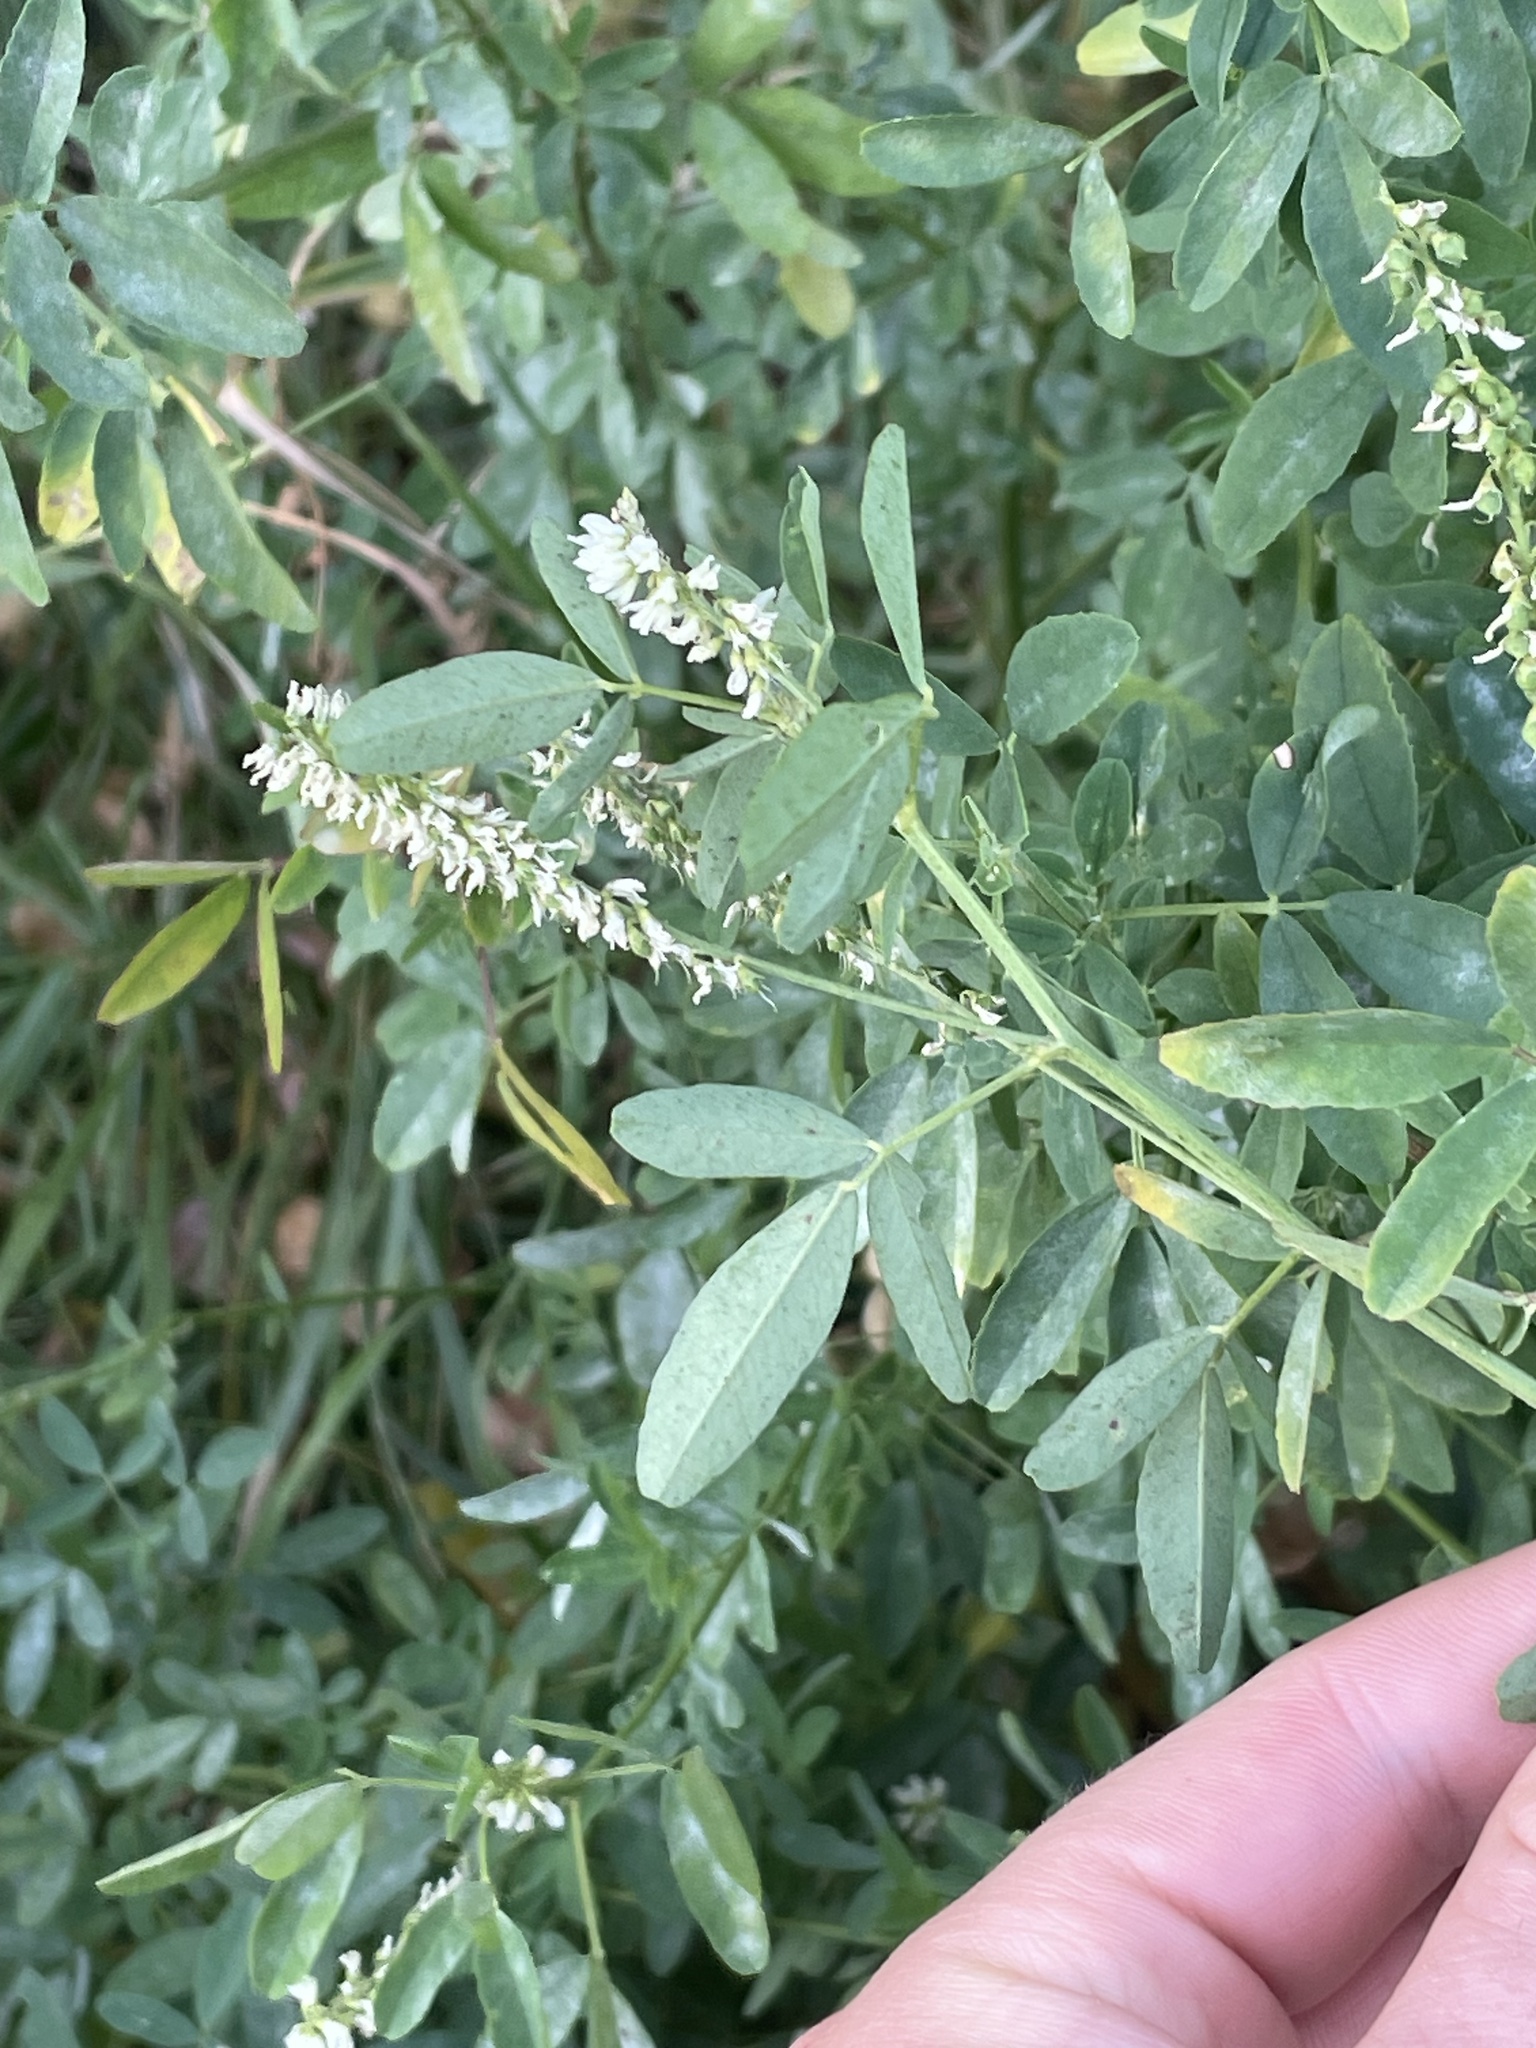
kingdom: Plantae
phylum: Tracheophyta
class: Magnoliopsida
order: Fabales
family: Fabaceae
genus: Melilotus
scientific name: Melilotus albus
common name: White melilot
